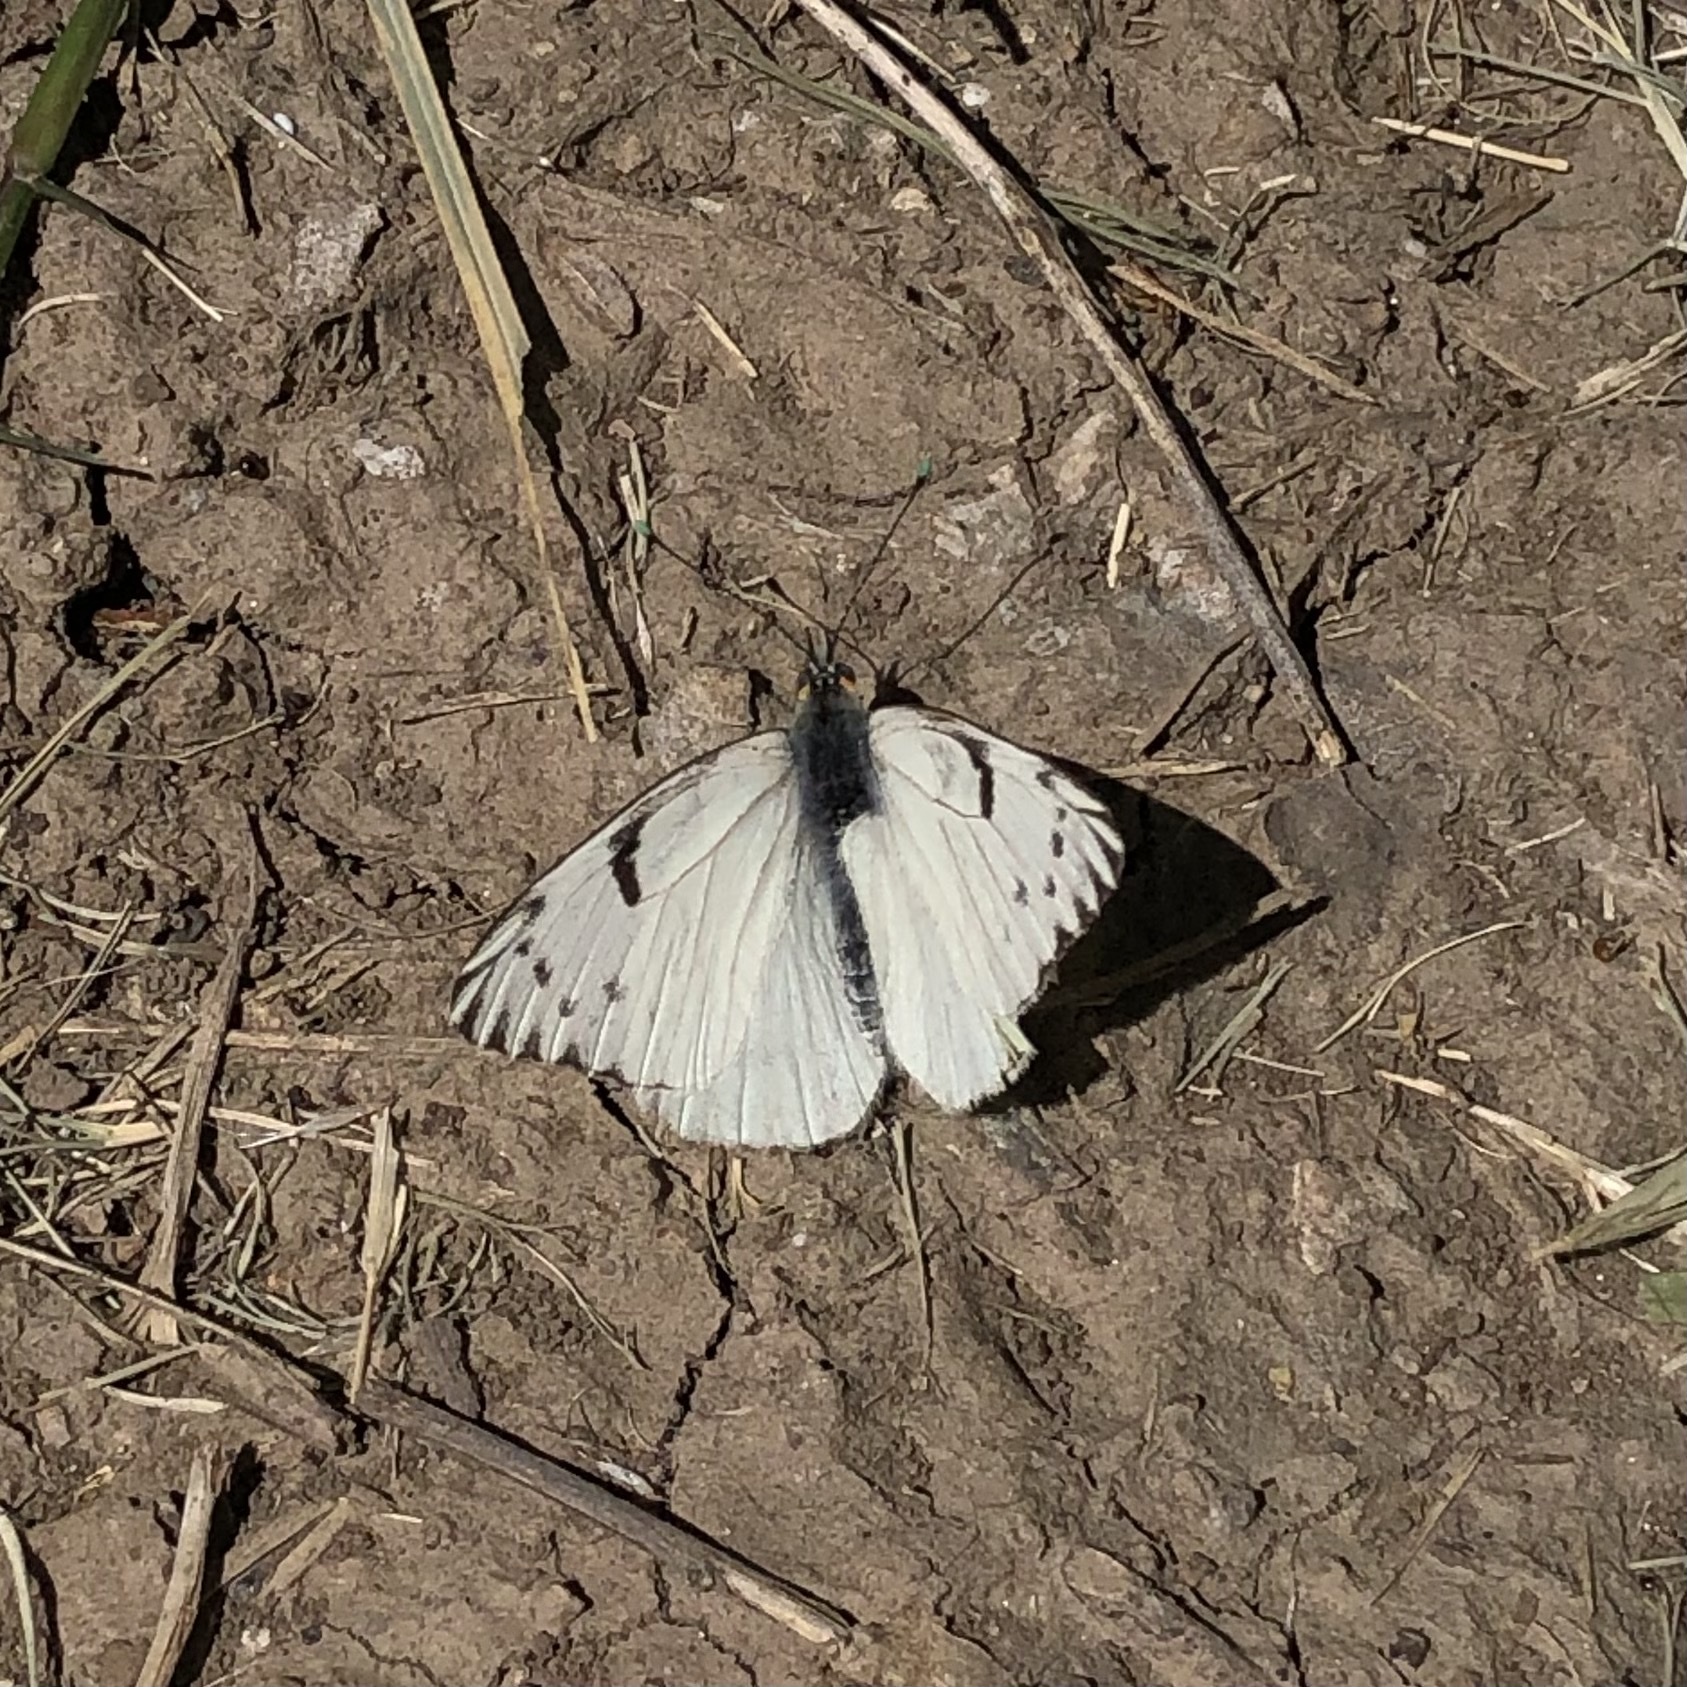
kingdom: Animalia
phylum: Arthropoda
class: Insecta
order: Lepidoptera
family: Pieridae
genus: Tatochila
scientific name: Tatochila autodice
